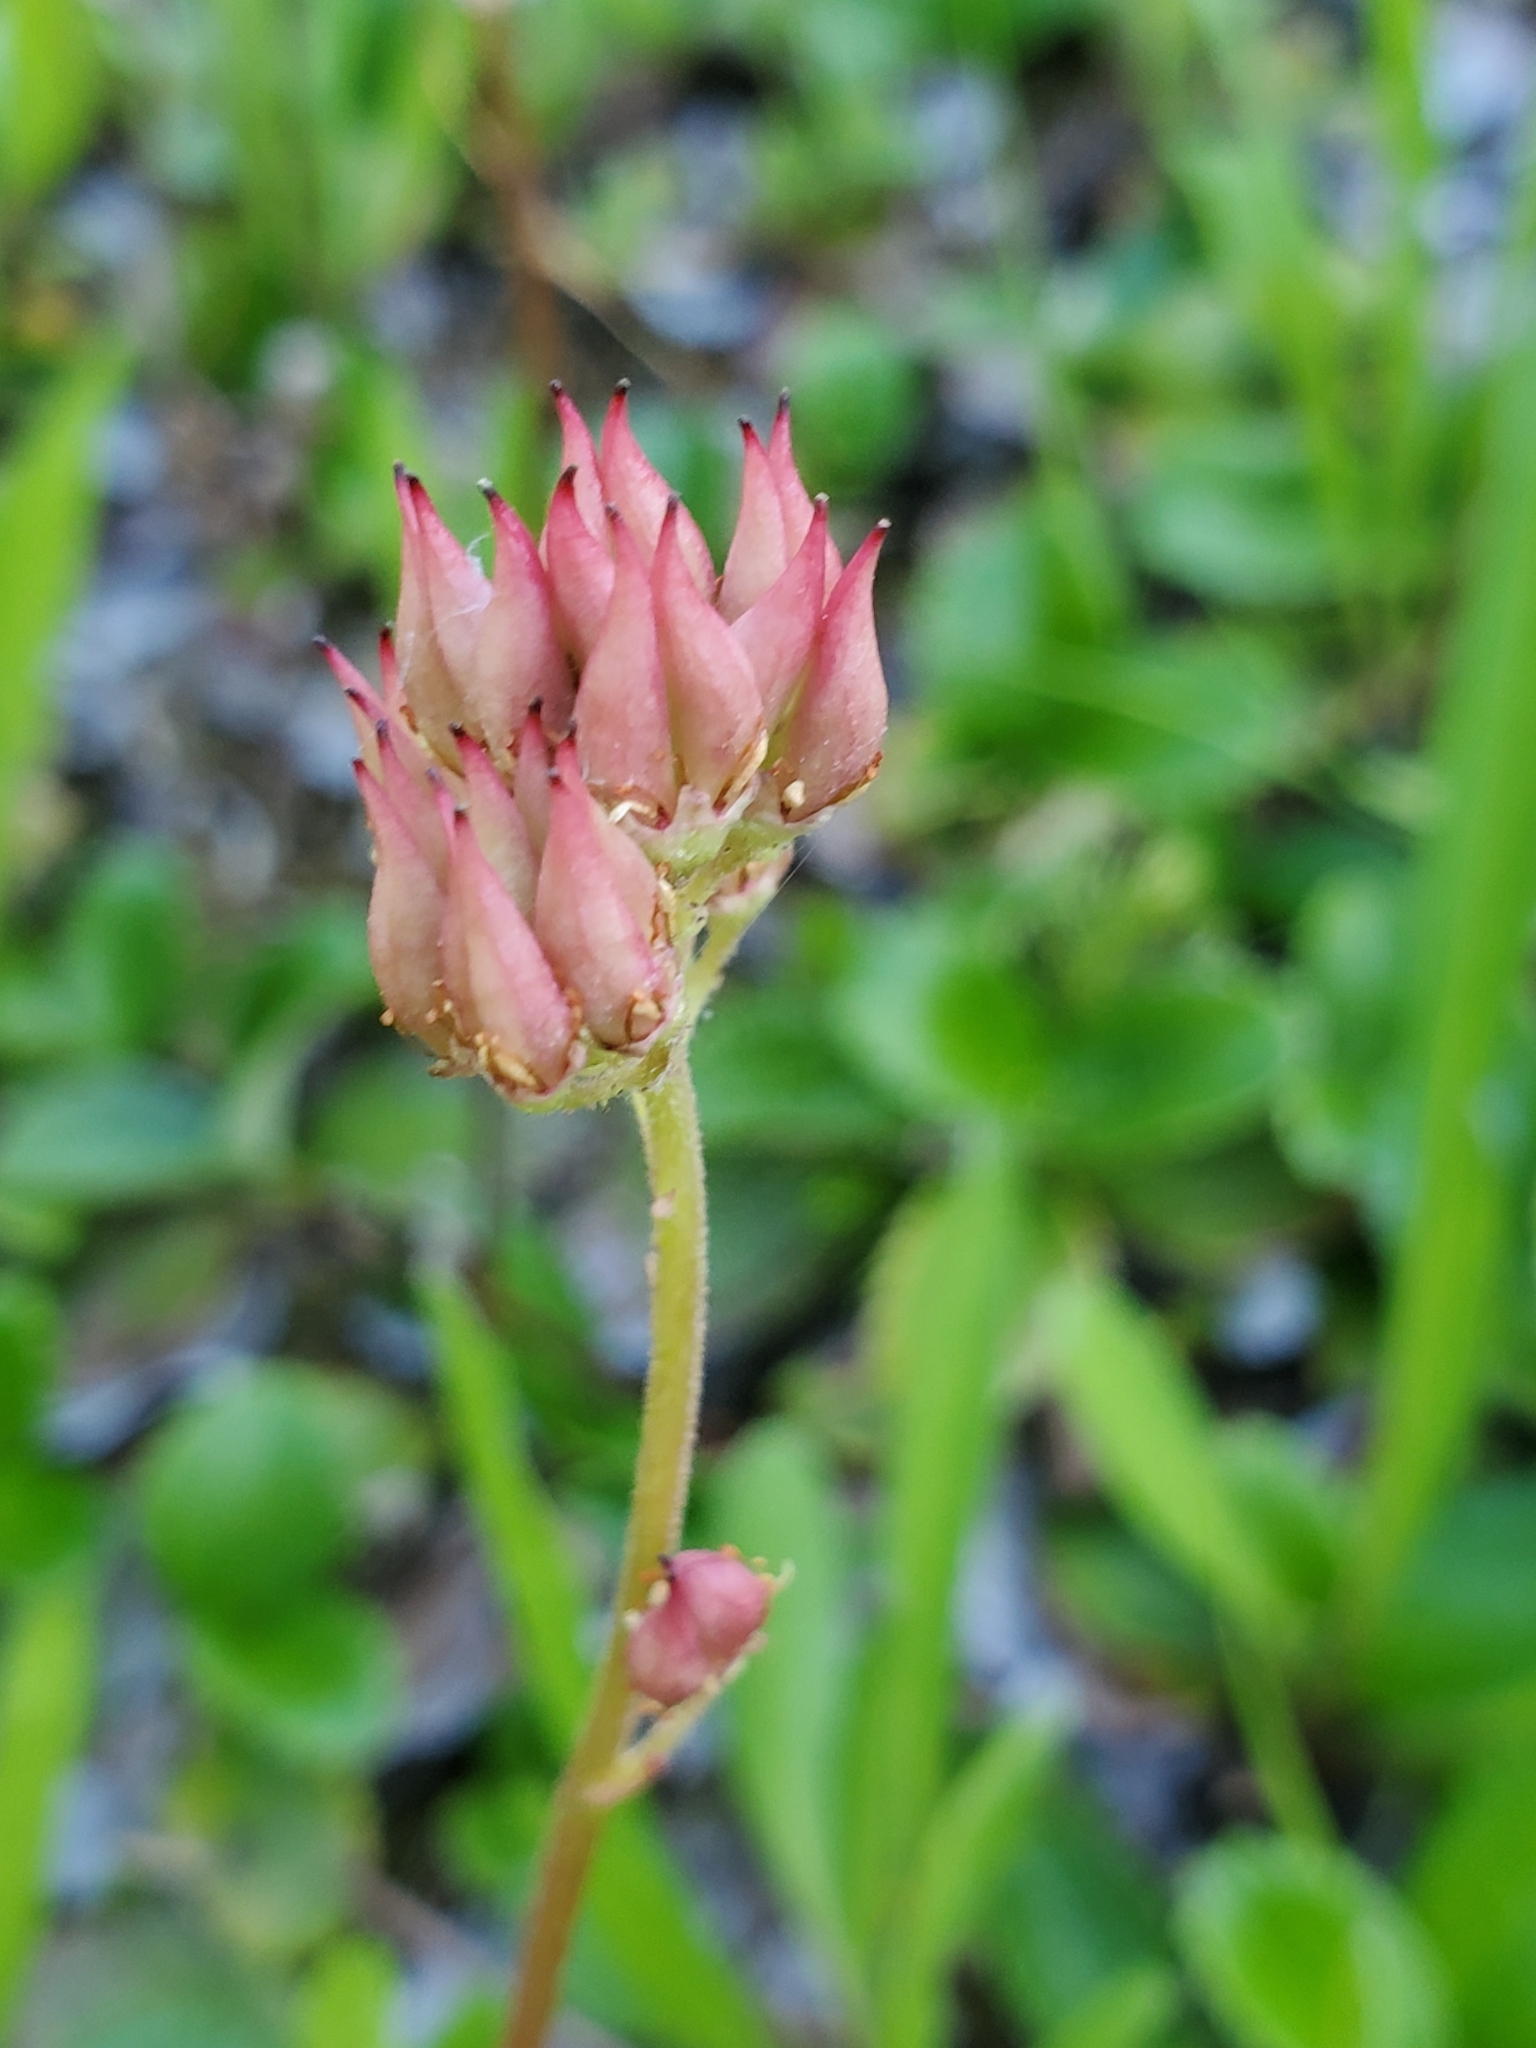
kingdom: Plantae
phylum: Tracheophyta
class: Magnoliopsida
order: Saxifragales
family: Saxifragaceae
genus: Leptarrhena
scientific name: Leptarrhena pyrolifolia
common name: Leatherleaf-saxifrage
